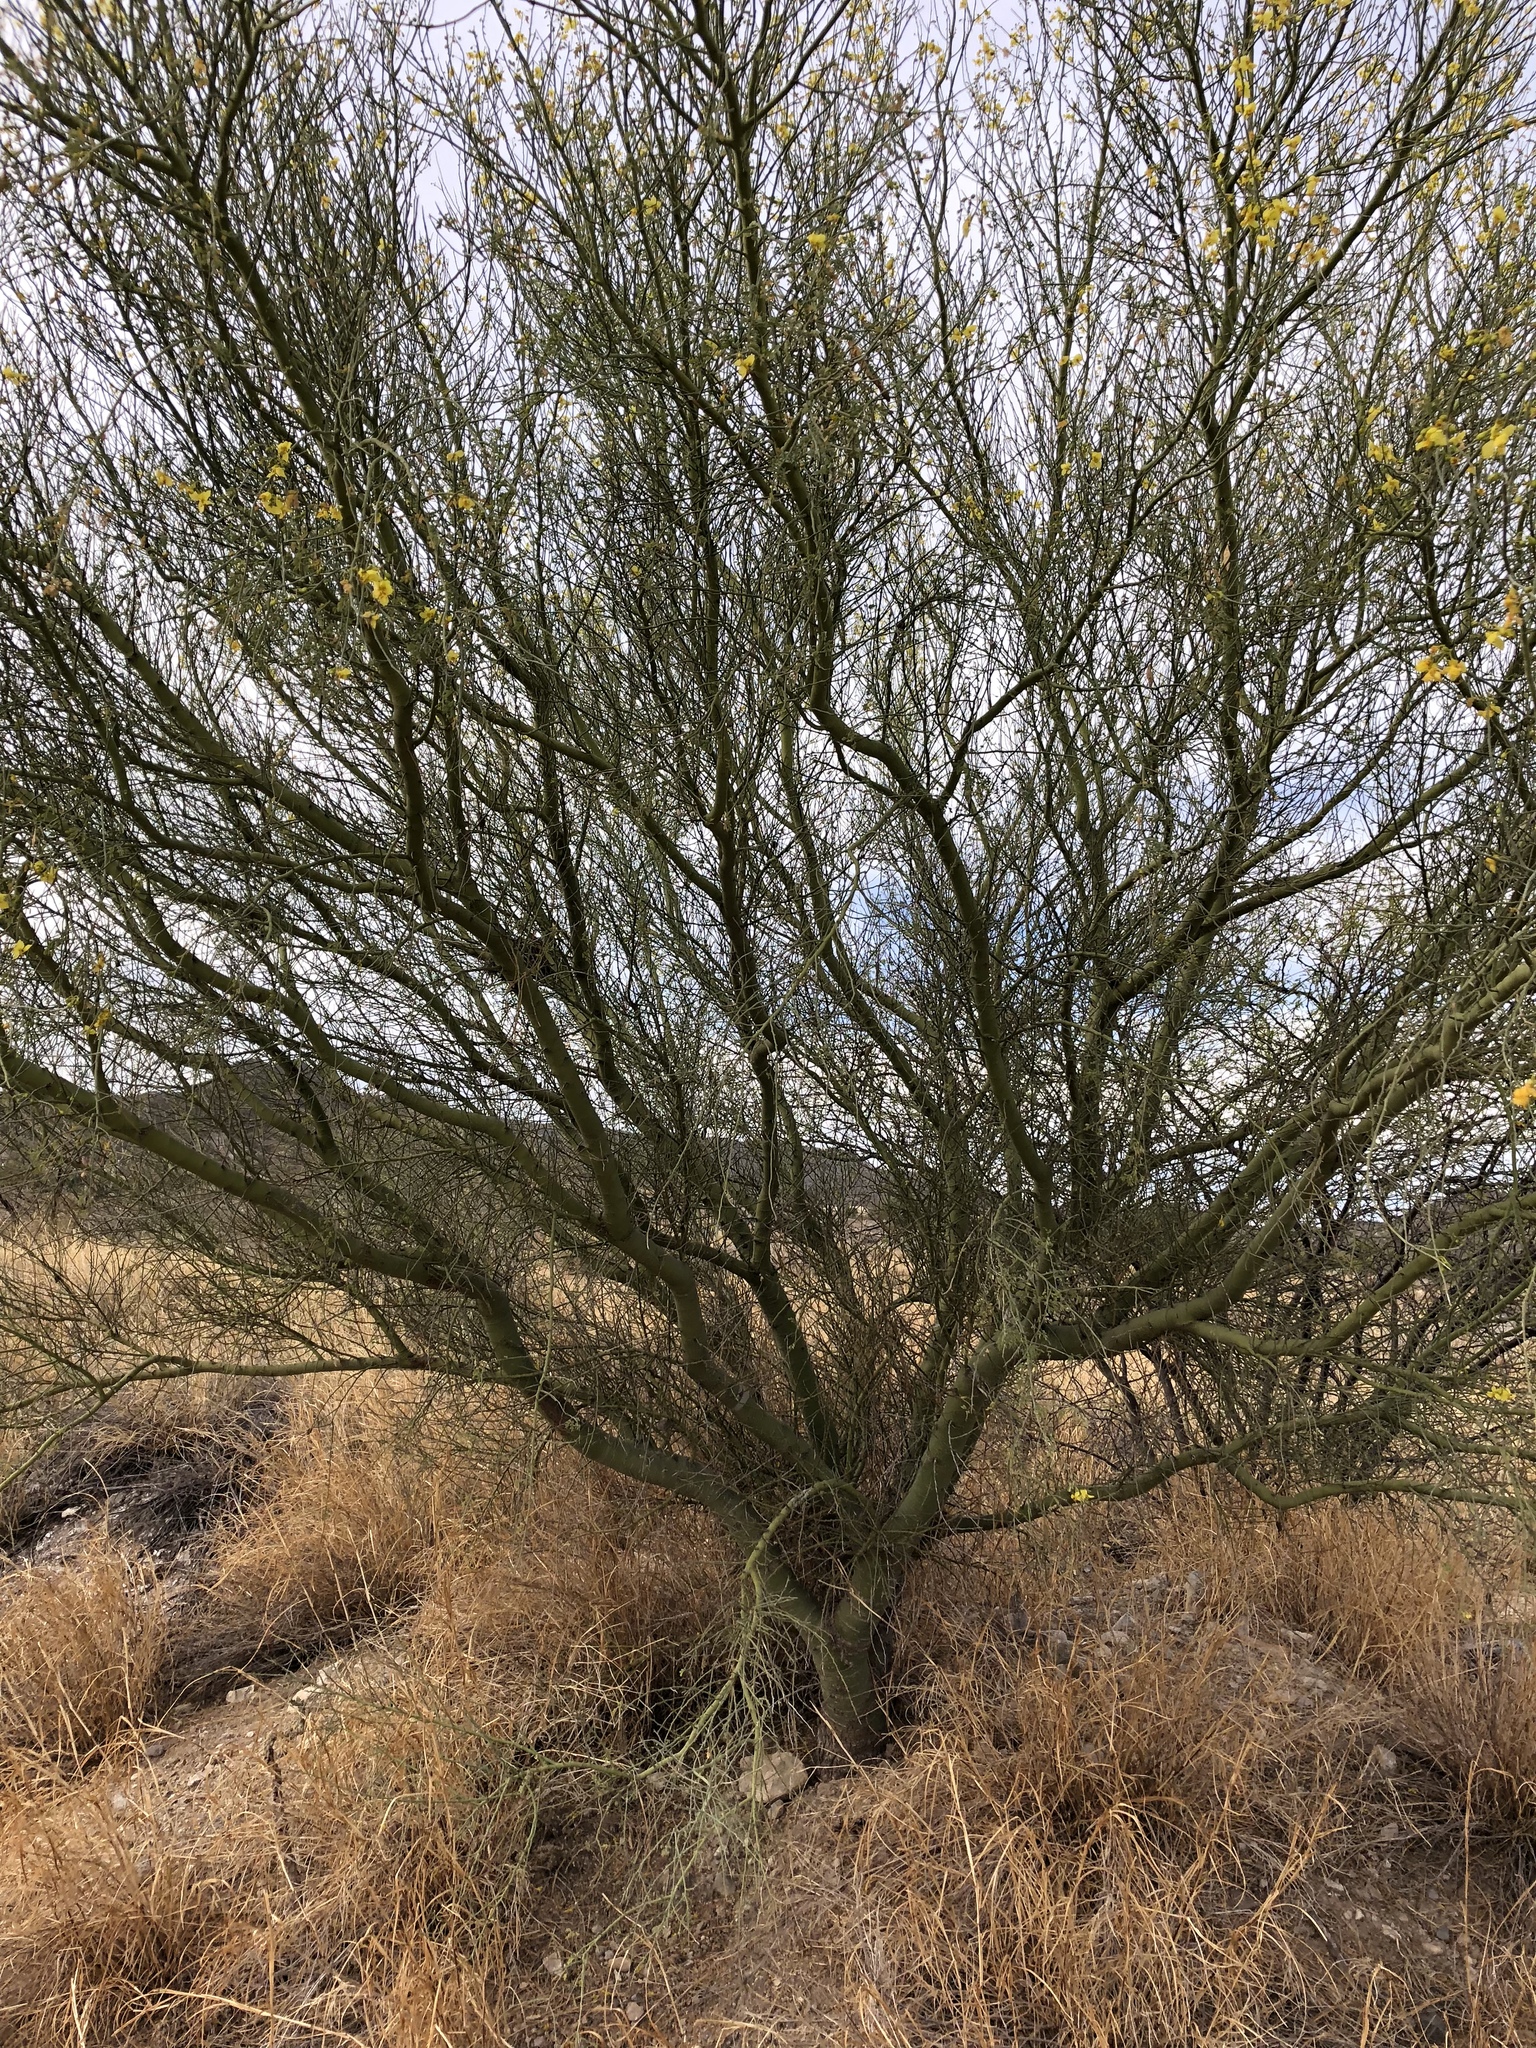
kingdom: Plantae
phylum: Tracheophyta
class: Magnoliopsida
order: Fabales
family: Fabaceae
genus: Parkinsonia
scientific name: Parkinsonia praecox
